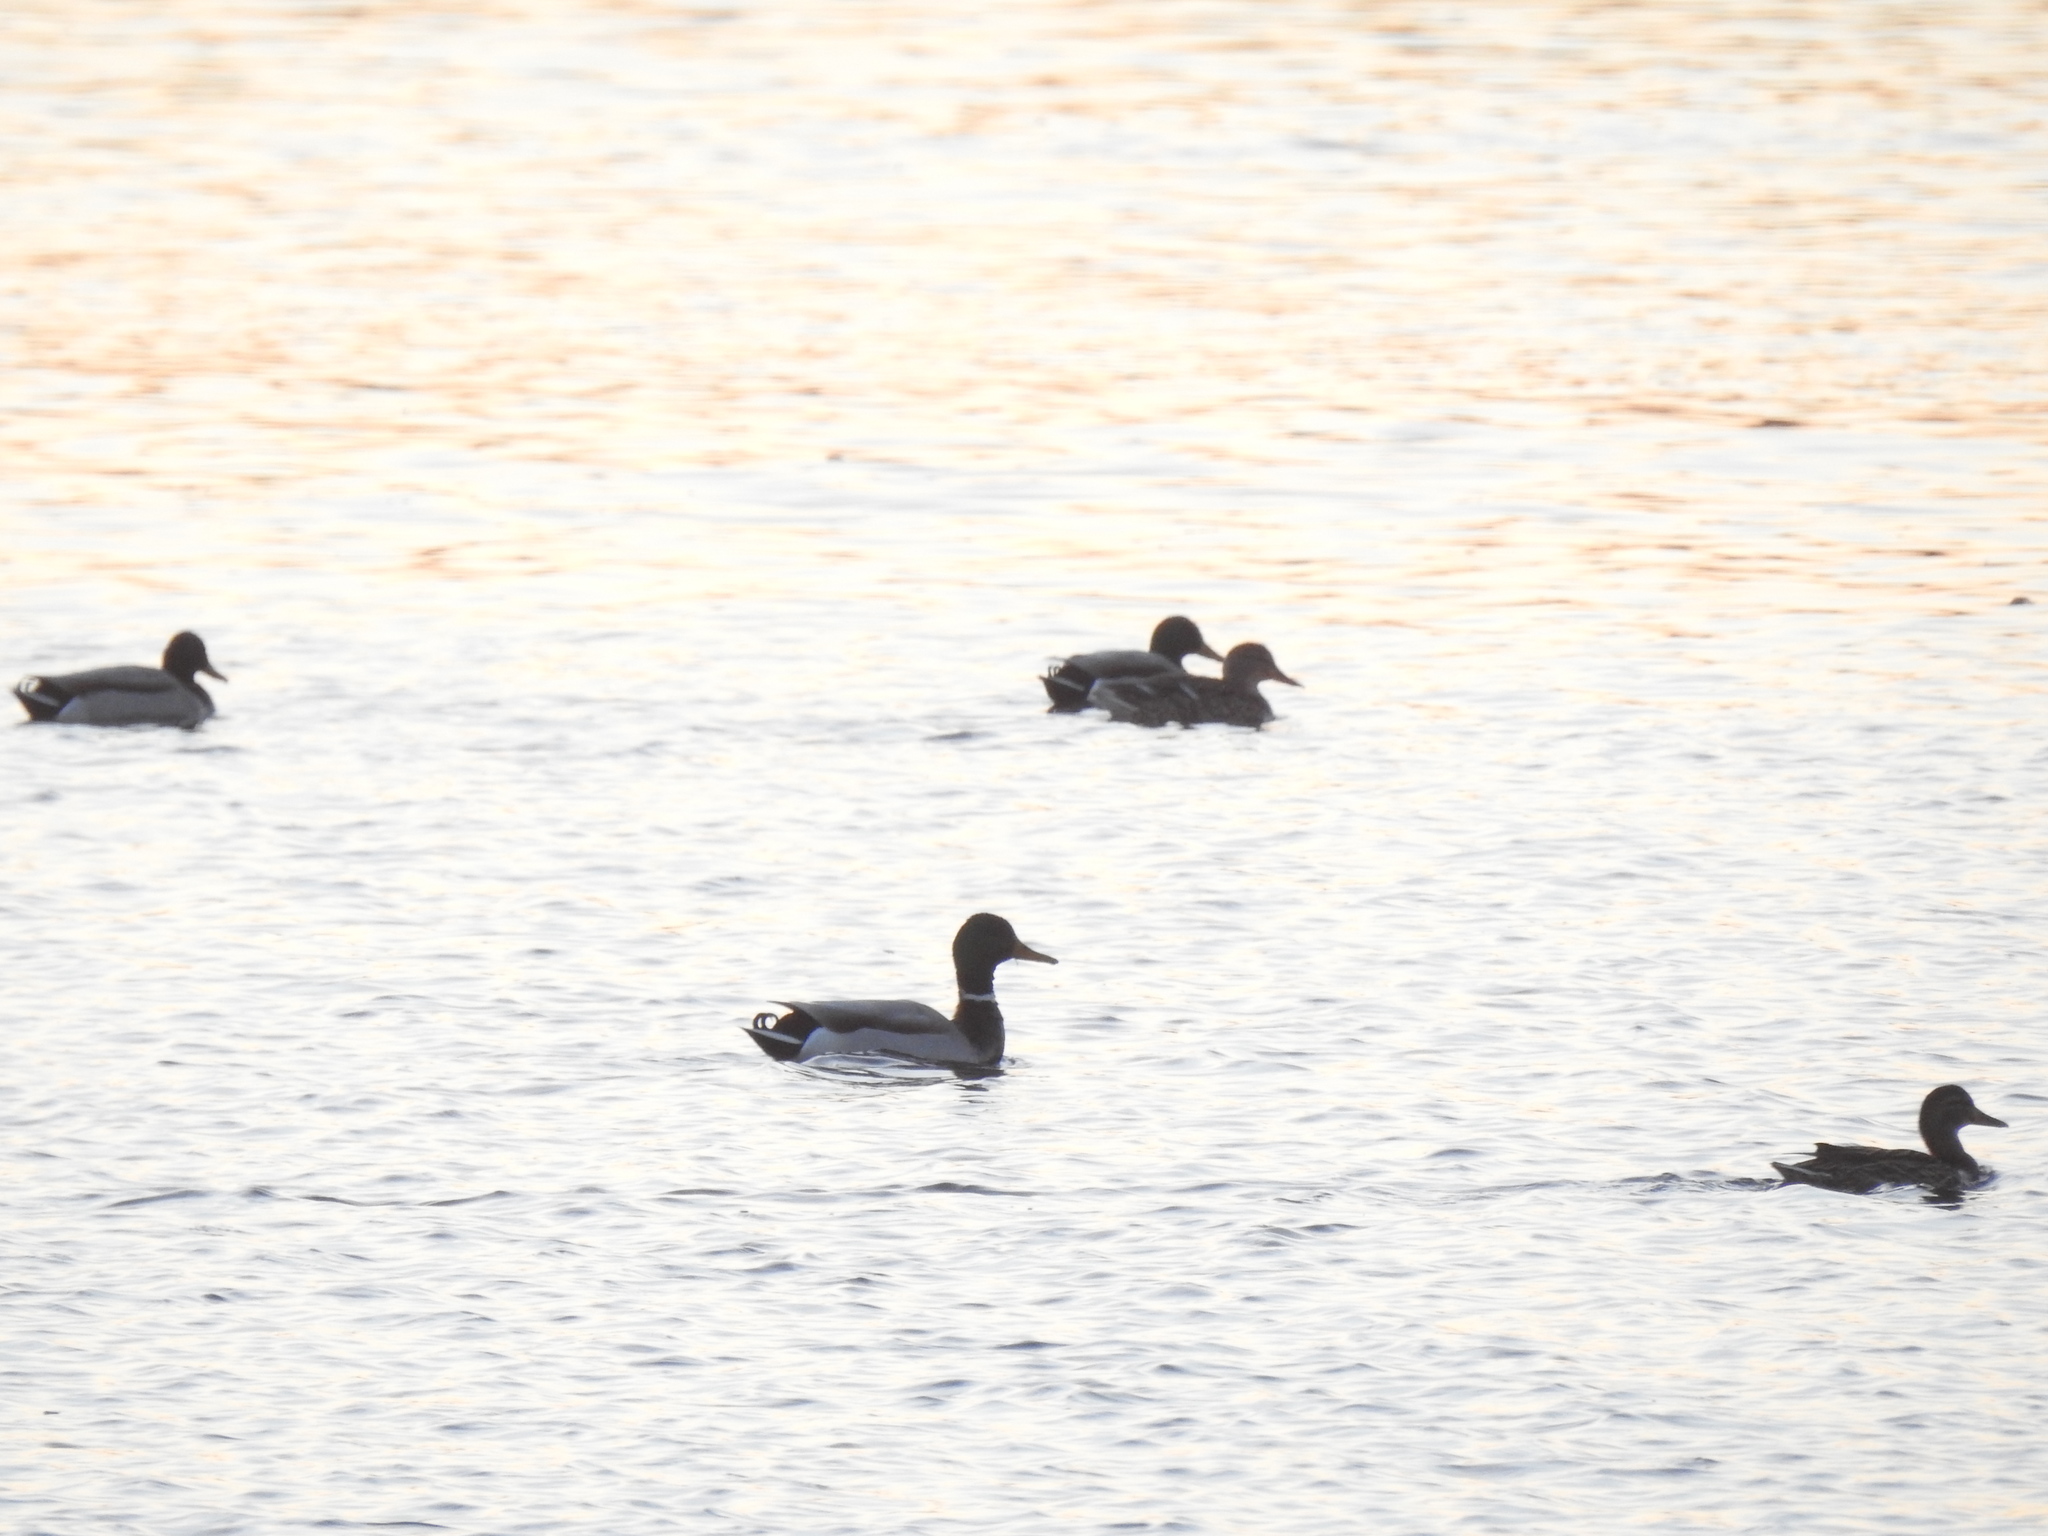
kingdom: Animalia
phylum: Chordata
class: Aves
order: Anseriformes
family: Anatidae
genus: Anas
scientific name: Anas platyrhynchos
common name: Mallard
